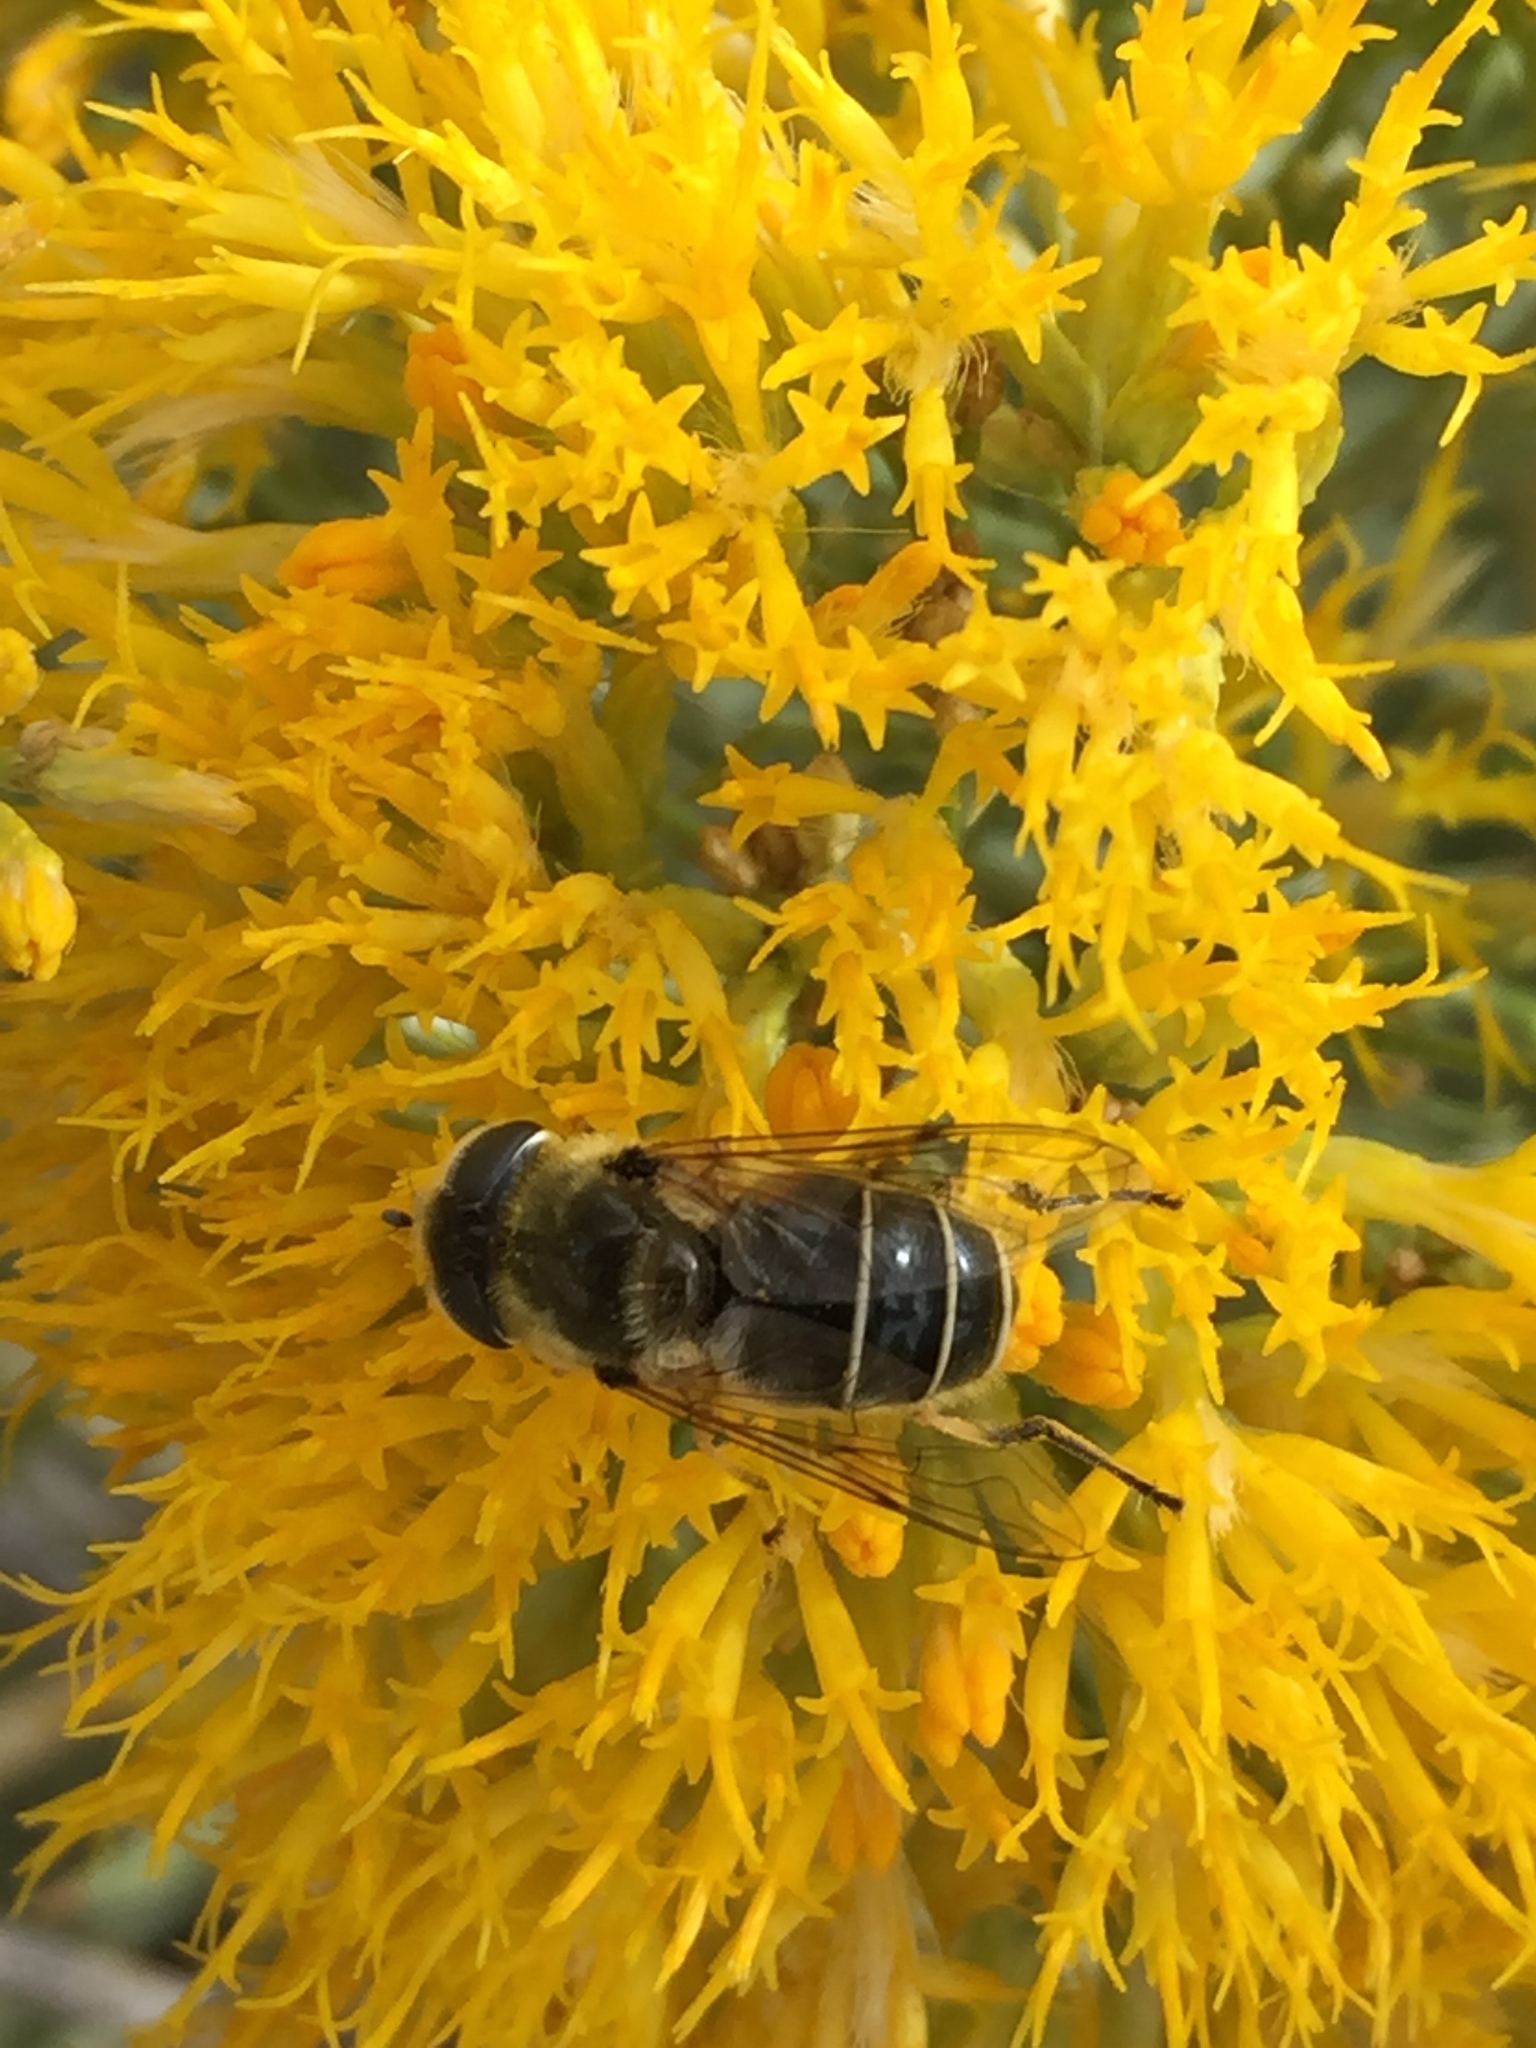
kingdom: Animalia
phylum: Arthropoda
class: Insecta
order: Diptera
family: Syrphidae
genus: Eoseristalis
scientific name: Eoseristalis
